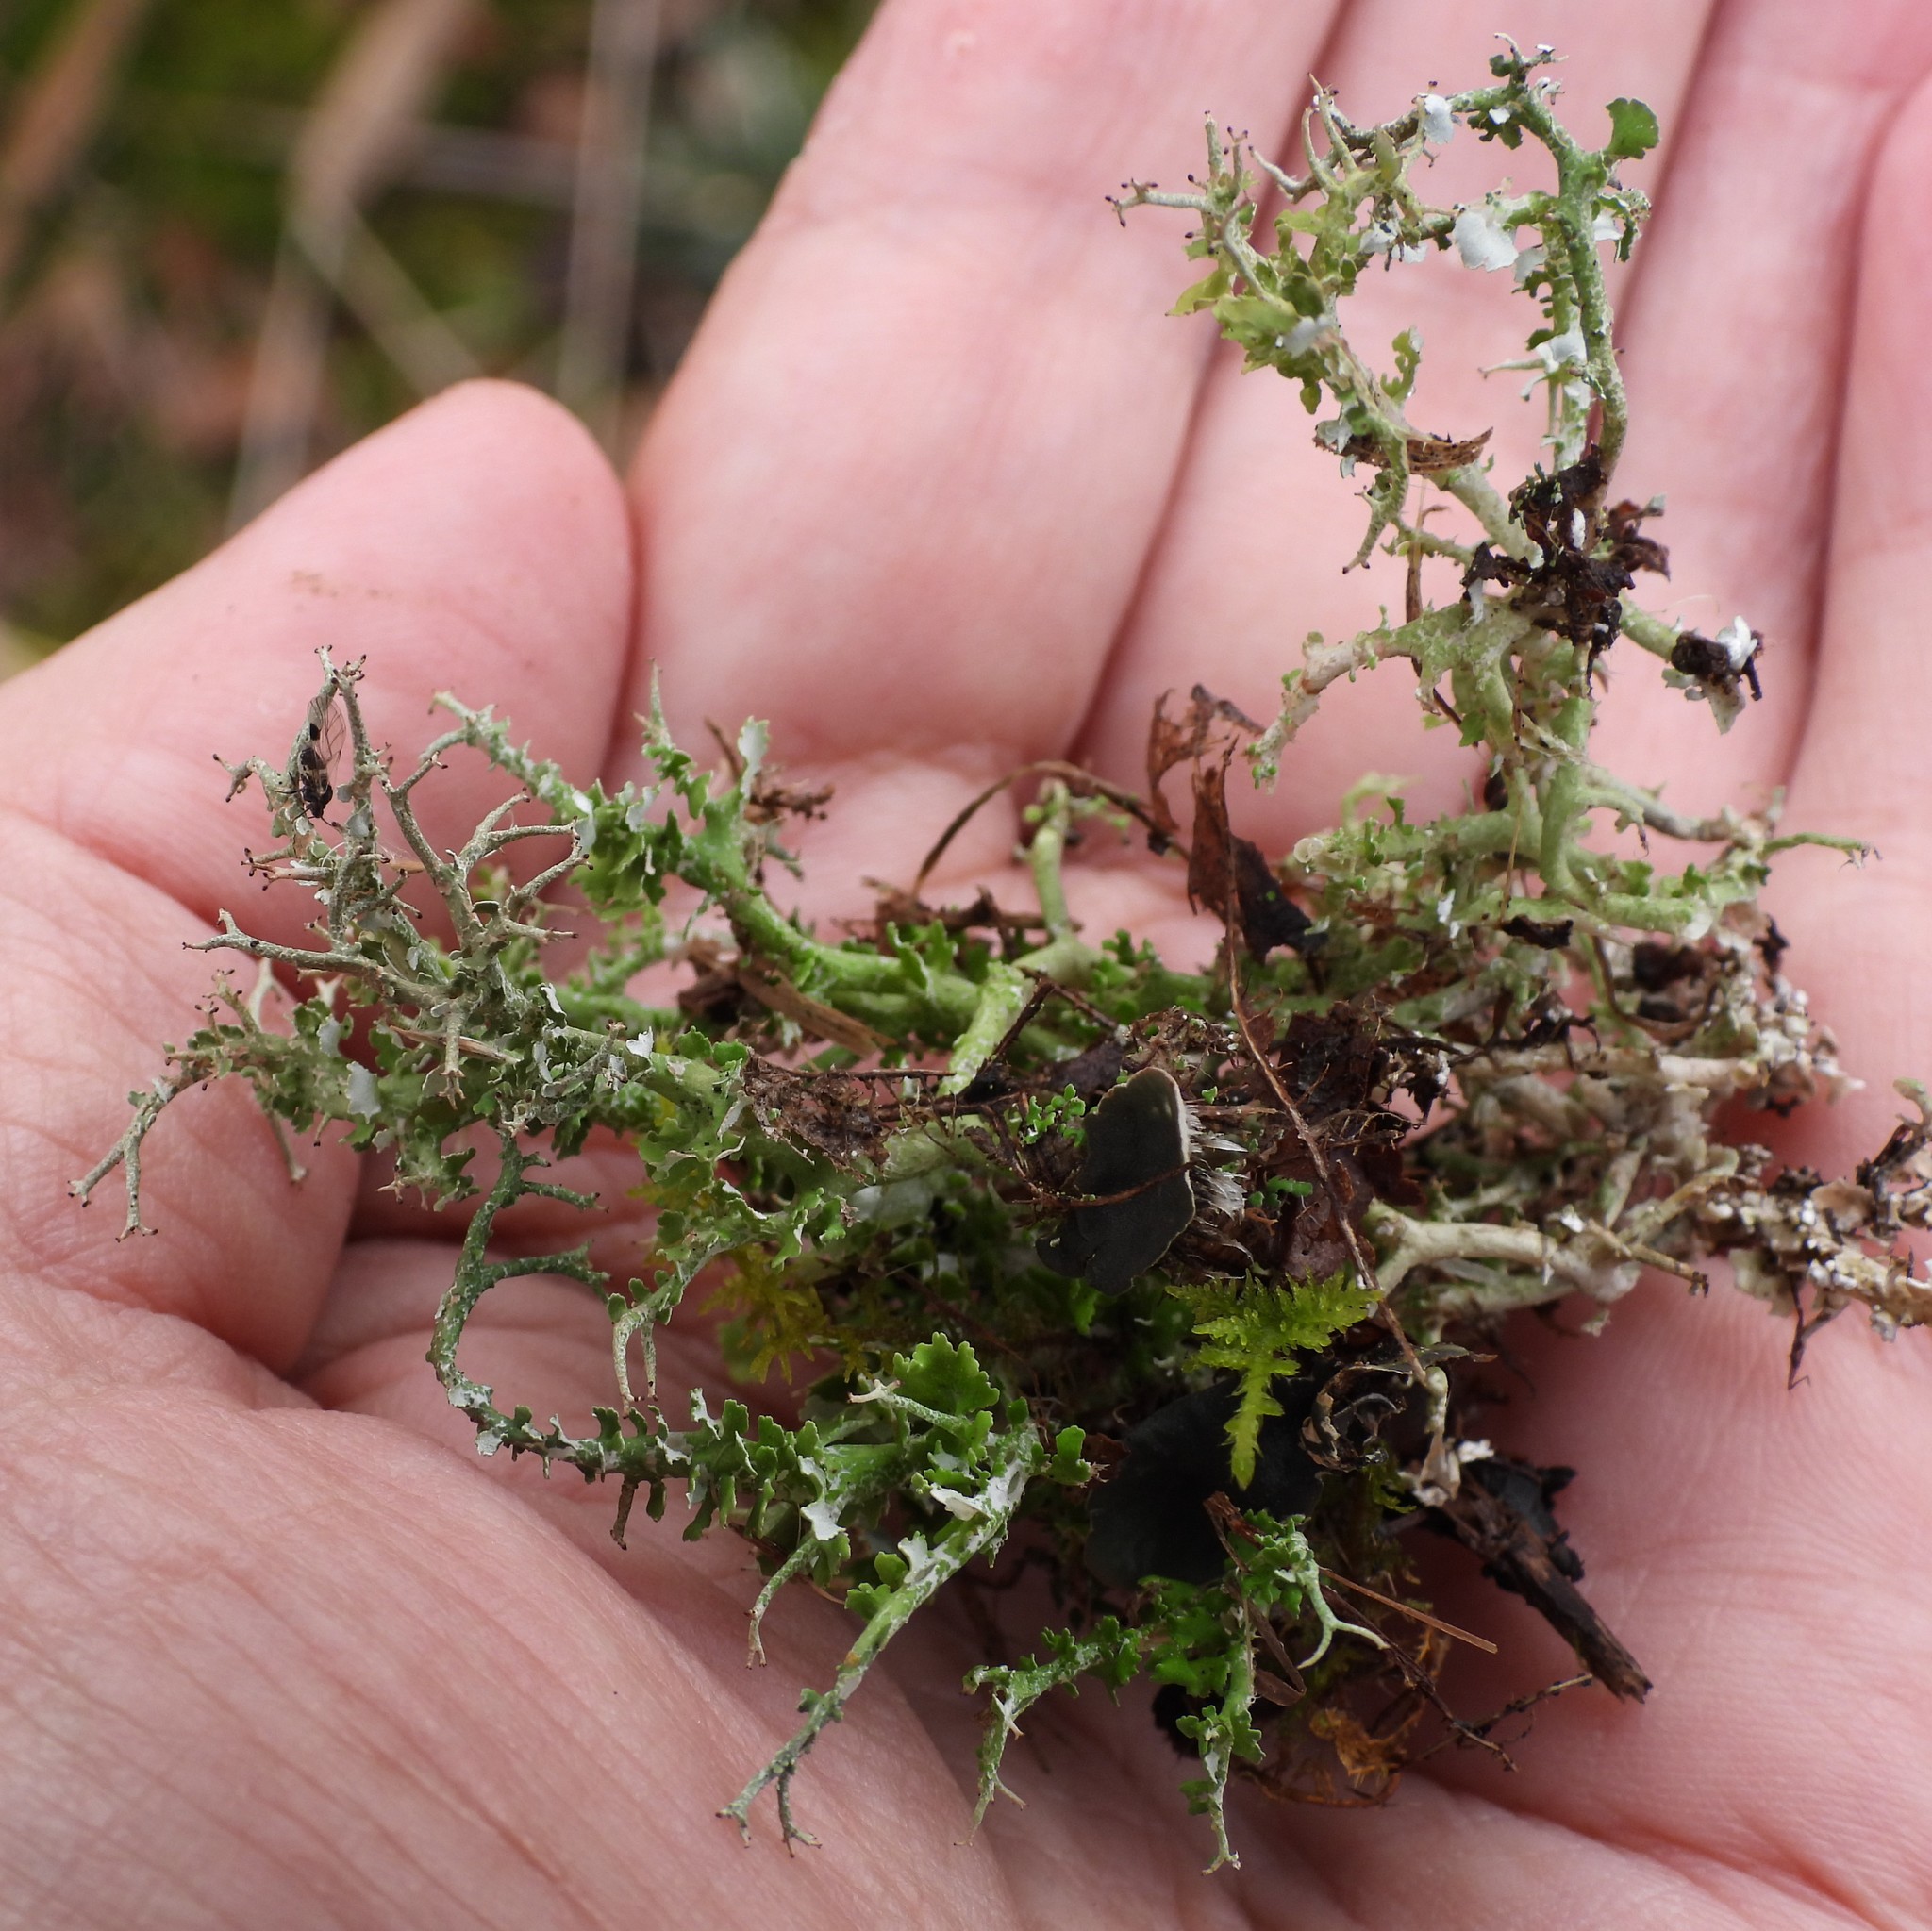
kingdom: Fungi
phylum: Ascomycota
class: Lecanoromycetes
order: Lecanorales
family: Cladoniaceae
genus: Cladonia
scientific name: Cladonia furcata
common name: Many-forked cladonia
